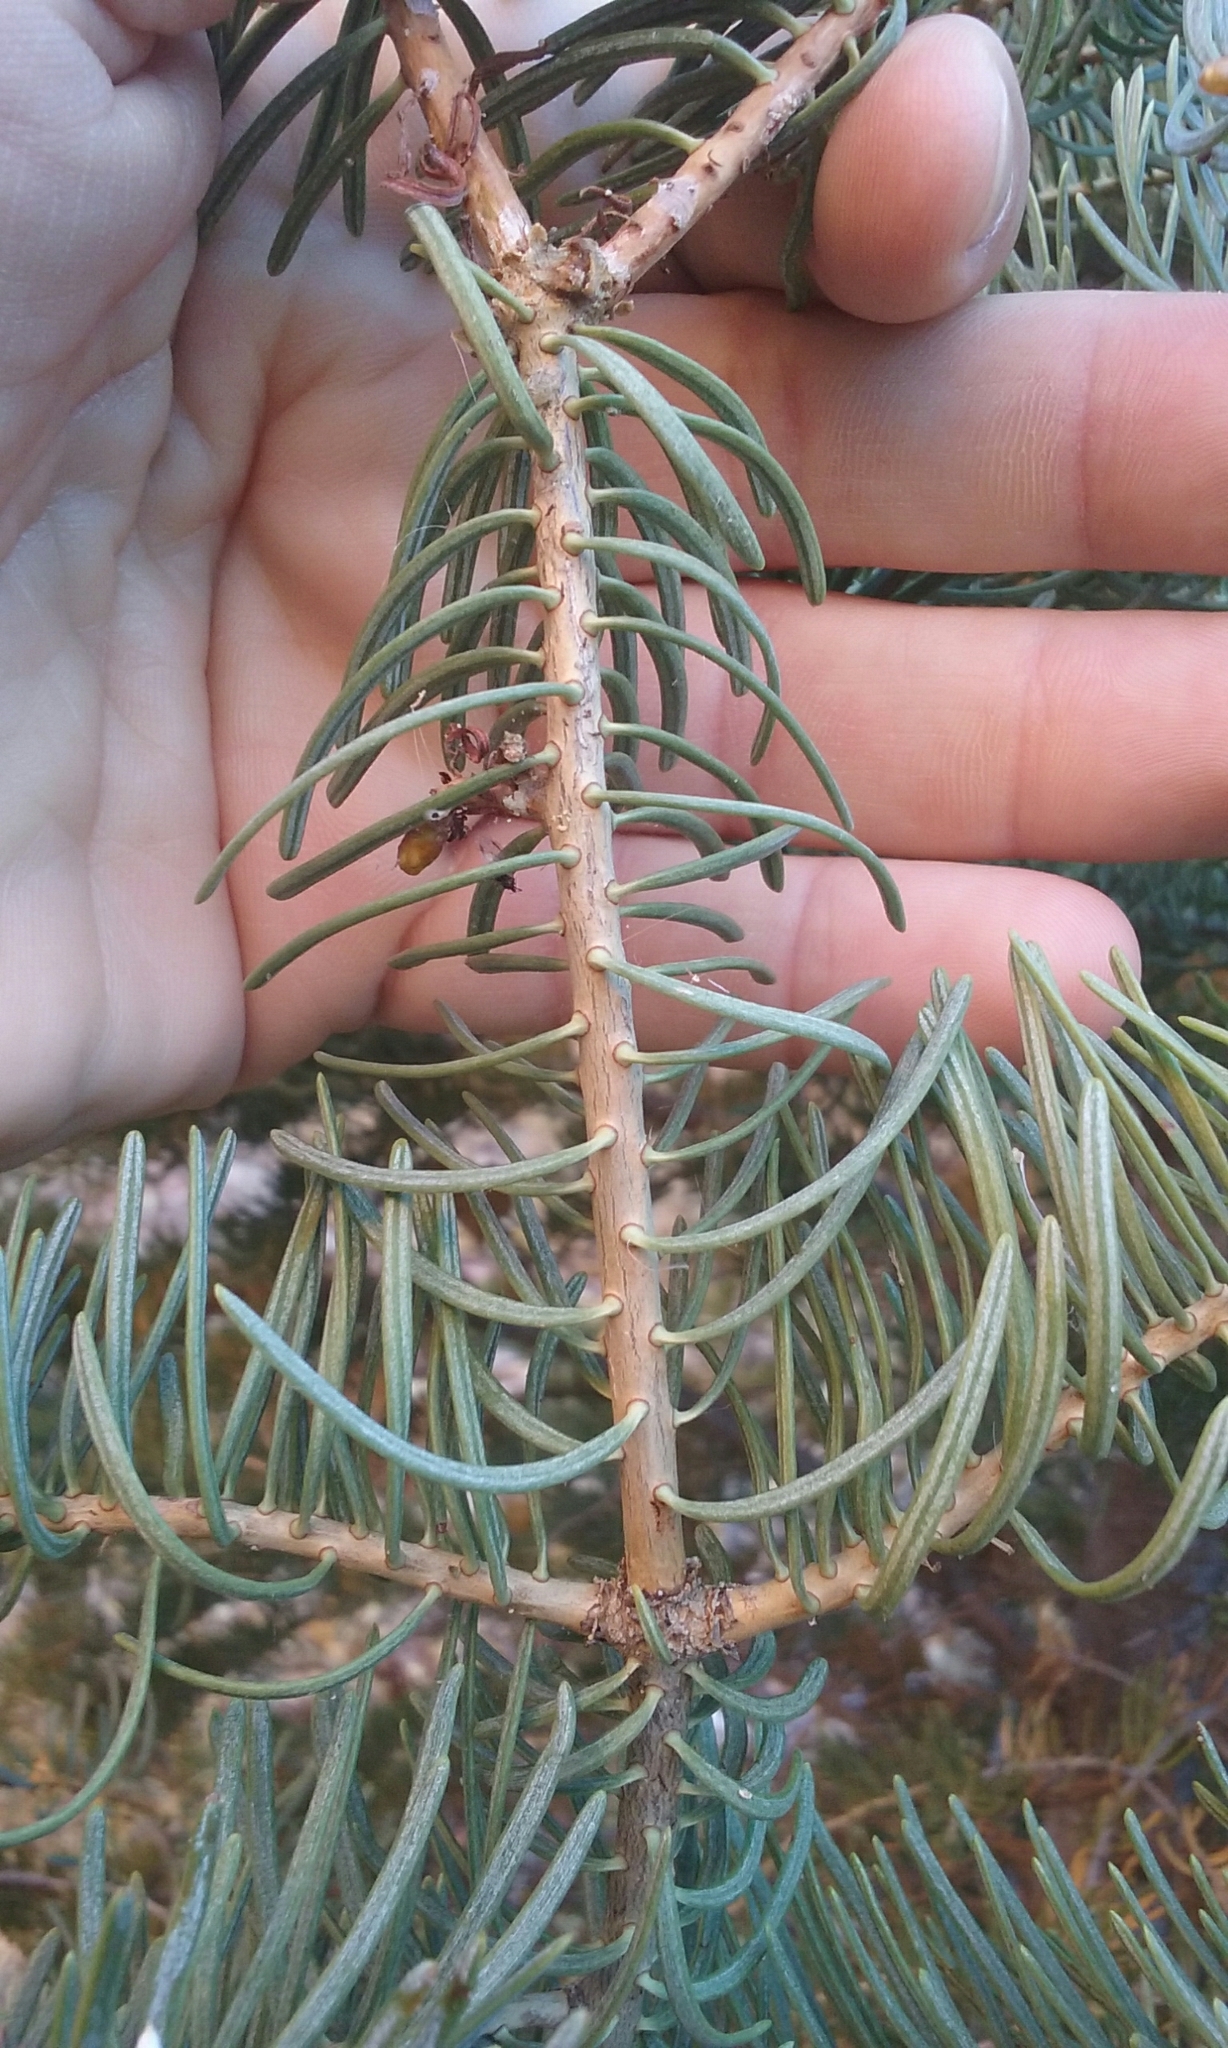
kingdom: Plantae
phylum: Tracheophyta
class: Pinopsida
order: Pinales
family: Pinaceae
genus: Abies
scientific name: Abies concolor
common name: Colorado fir
